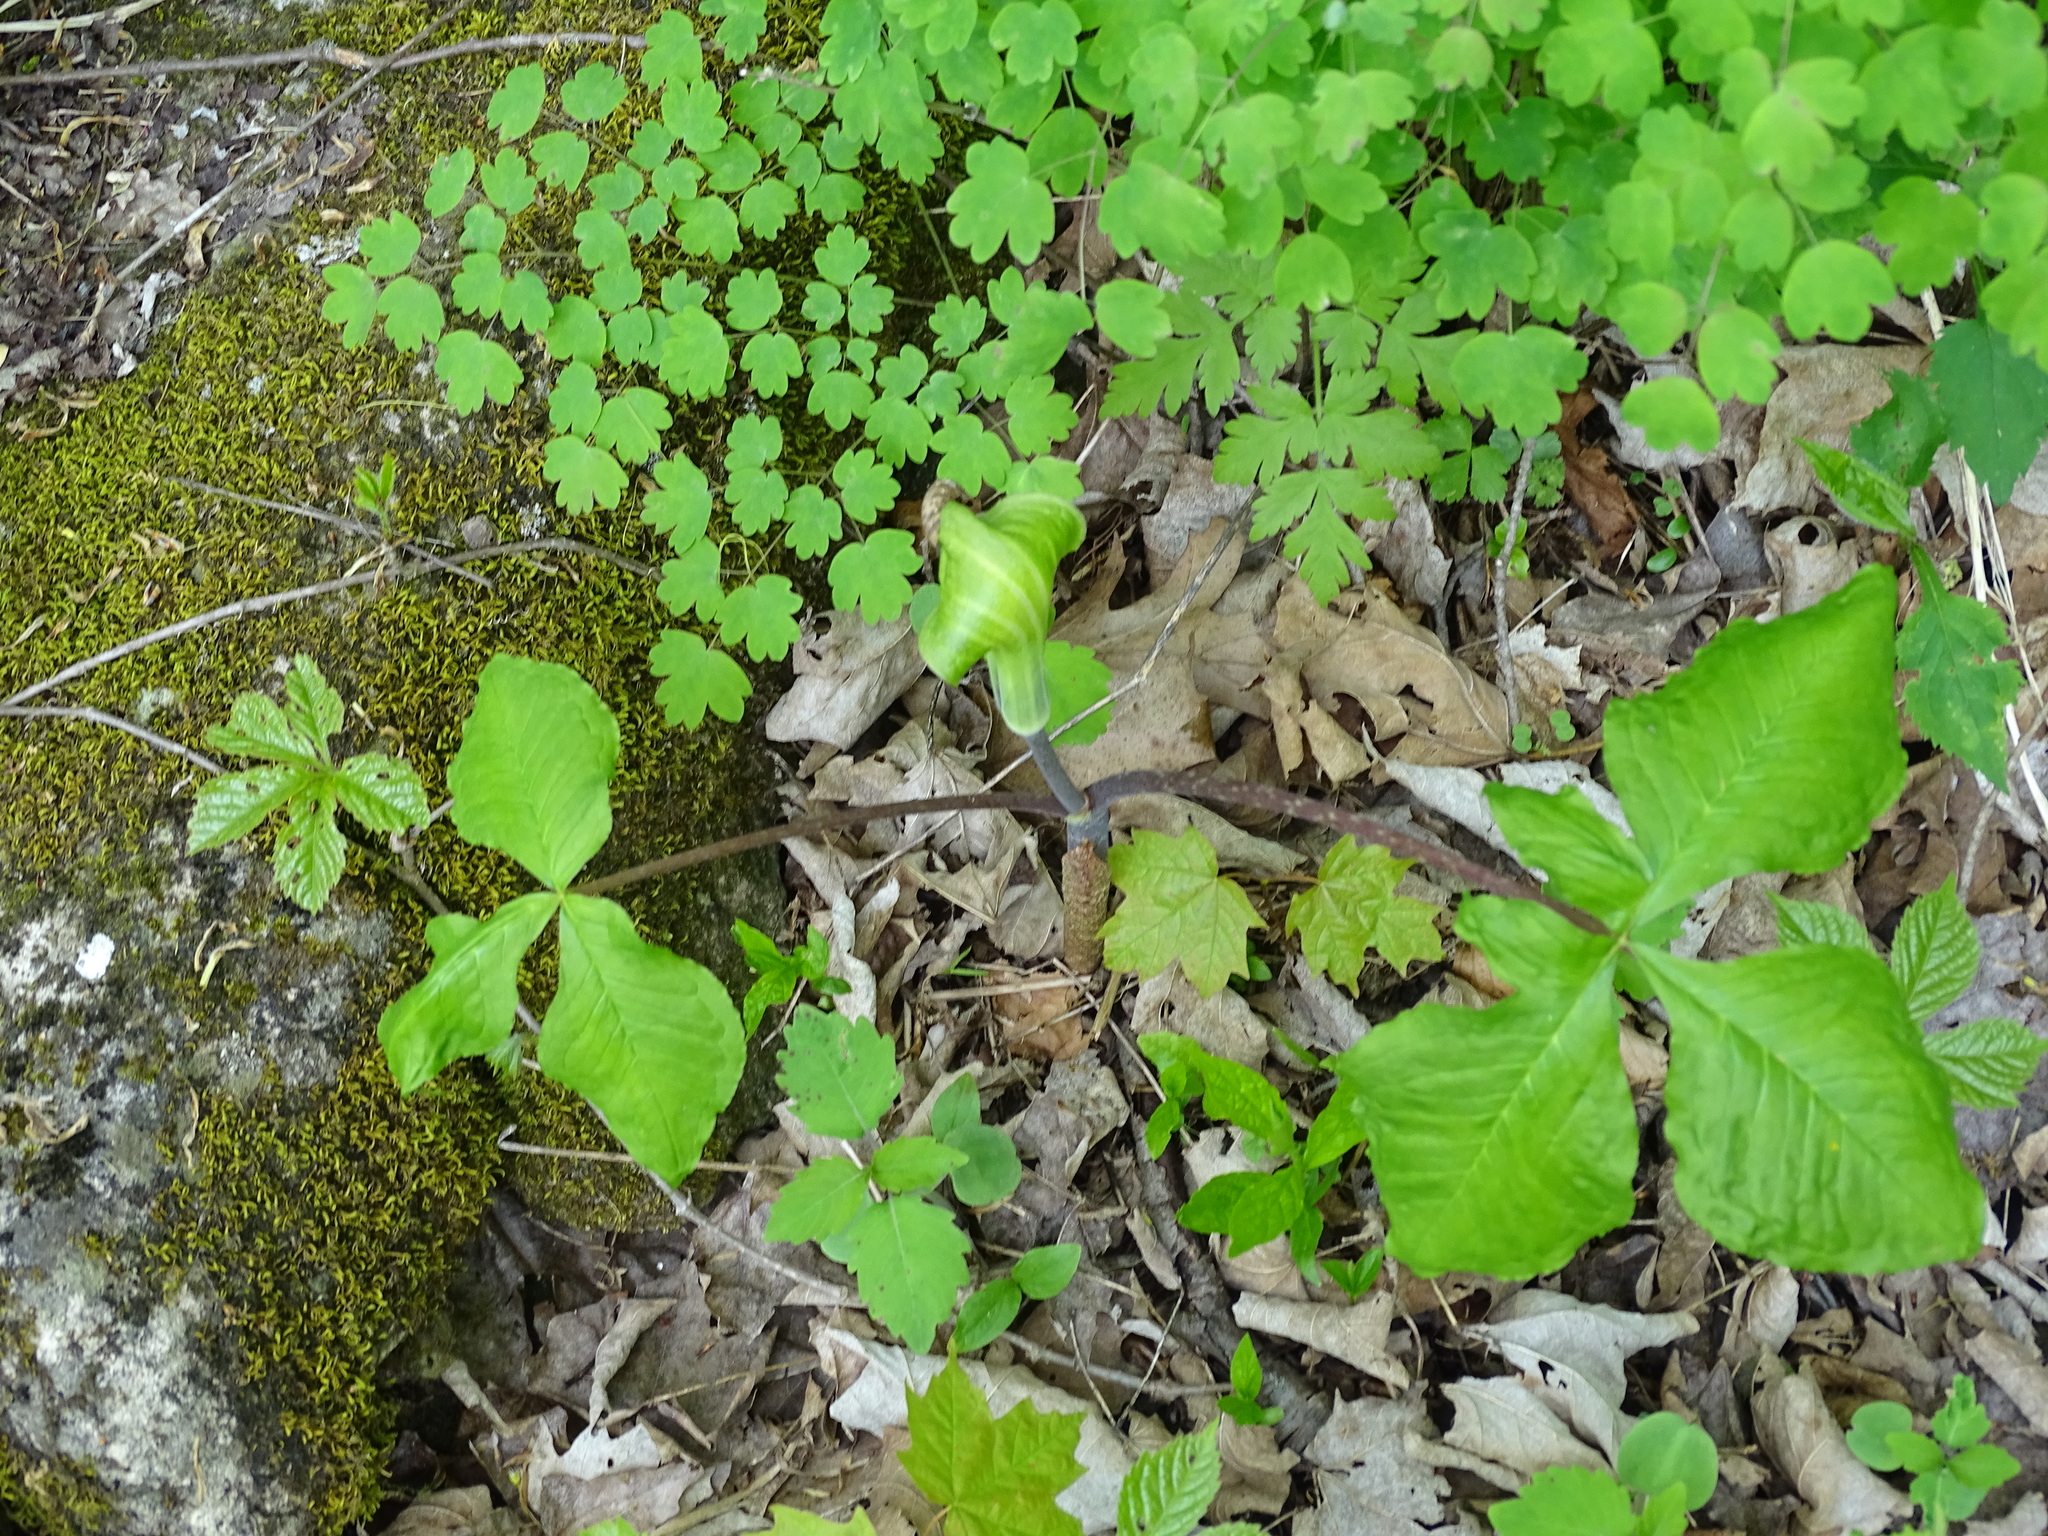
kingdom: Plantae
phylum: Tracheophyta
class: Liliopsida
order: Alismatales
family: Araceae
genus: Arisaema
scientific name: Arisaema triphyllum
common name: Jack-in-the-pulpit
